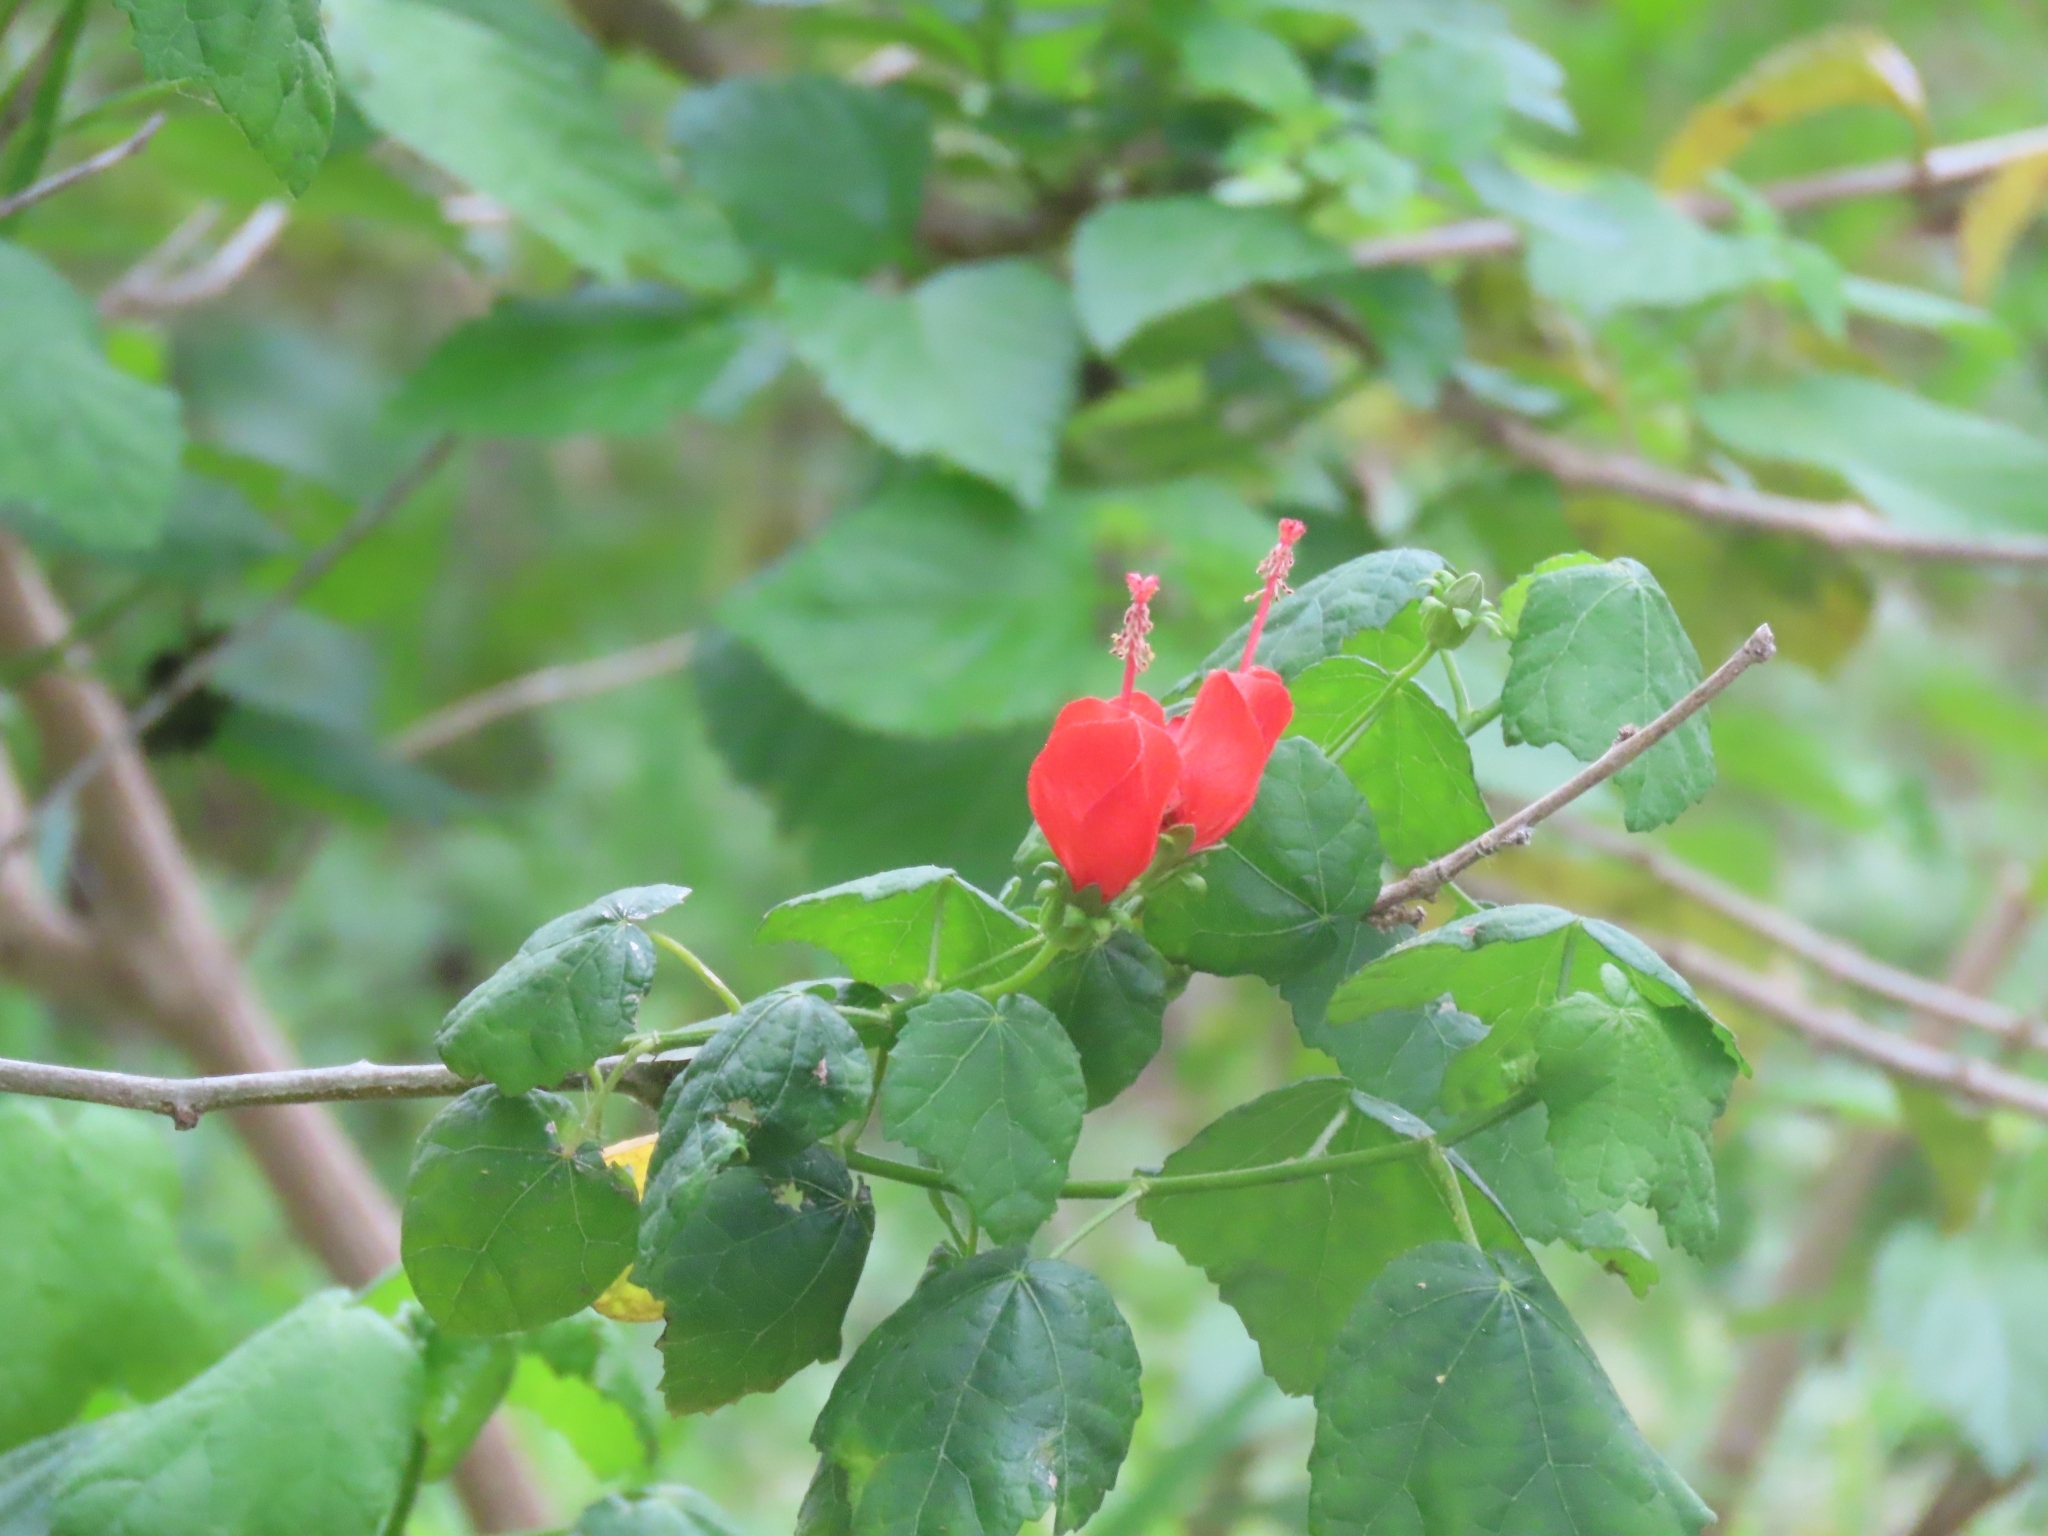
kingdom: Plantae
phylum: Tracheophyta
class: Magnoliopsida
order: Malvales
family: Malvaceae
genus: Malvaviscus
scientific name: Malvaviscus arboreus
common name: Wax mallow
